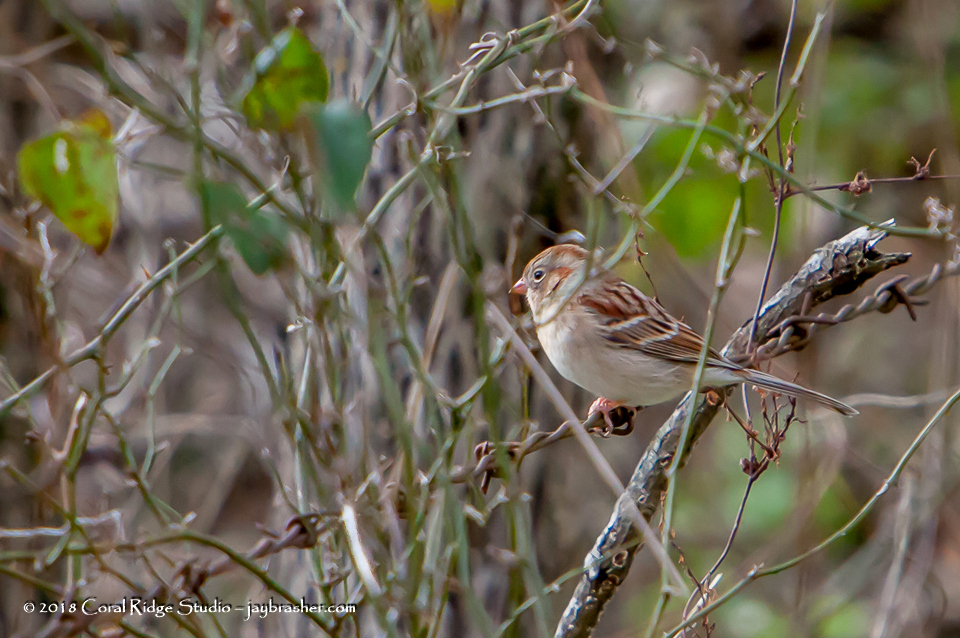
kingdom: Animalia
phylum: Chordata
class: Aves
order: Passeriformes
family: Passerellidae
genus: Spizella
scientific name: Spizella pusilla
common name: Field sparrow
